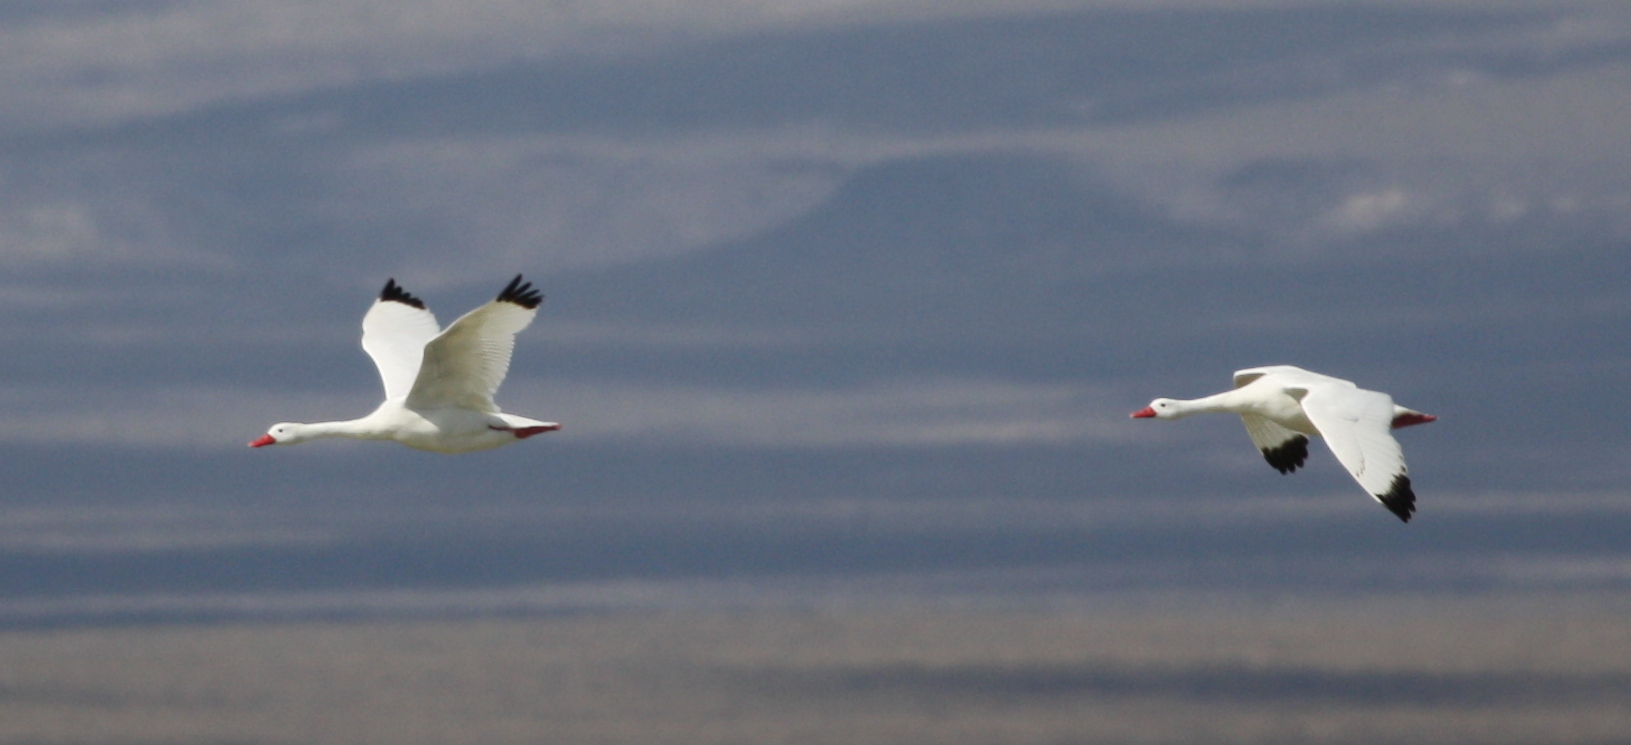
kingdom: Animalia
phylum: Chordata
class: Aves
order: Anseriformes
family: Anatidae
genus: Coscoroba
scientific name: Coscoroba coscoroba
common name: Coscoroba swan
